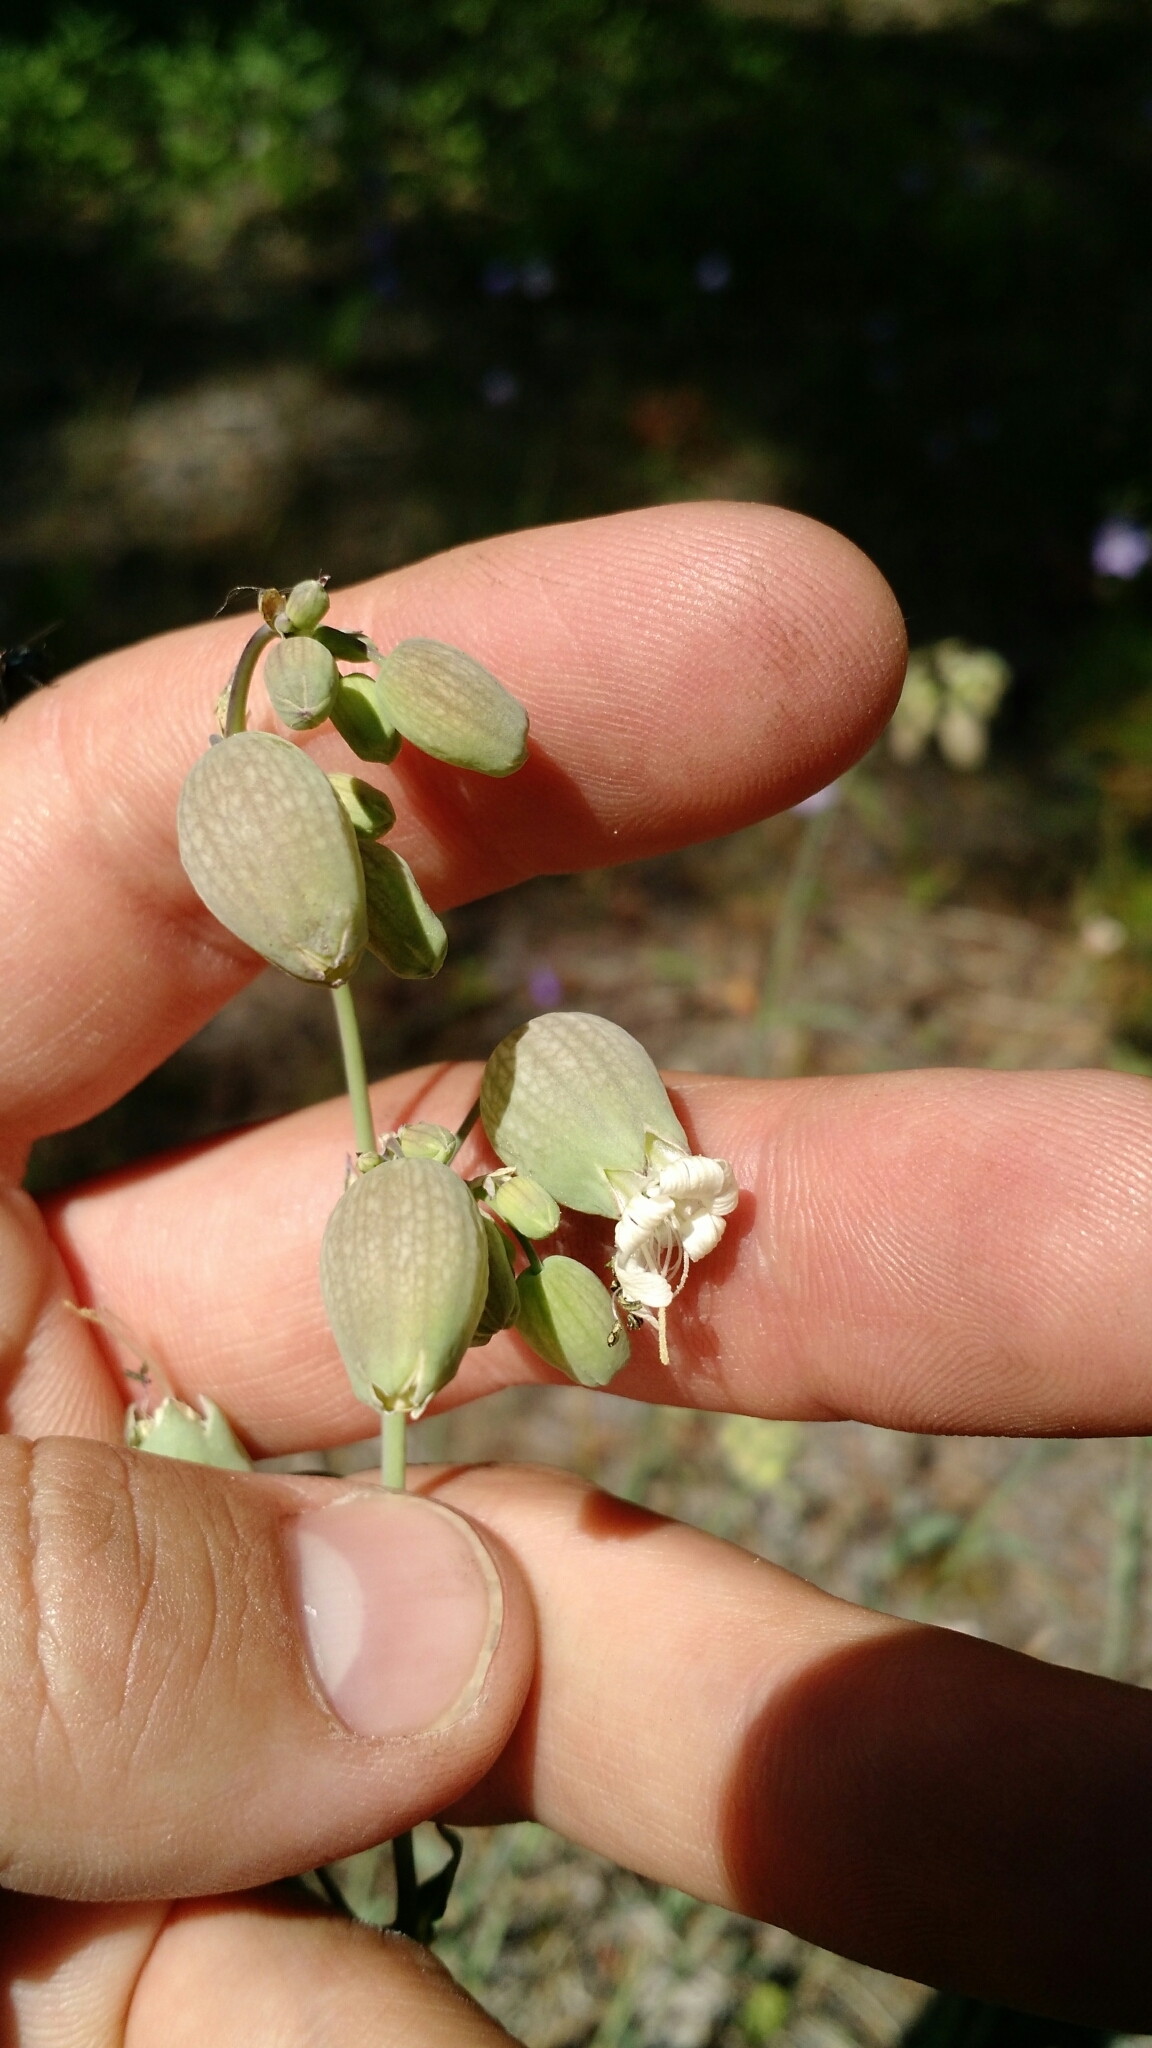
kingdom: Plantae
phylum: Tracheophyta
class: Magnoliopsida
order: Caryophyllales
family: Caryophyllaceae
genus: Silene
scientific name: Silene vulgaris
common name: Bladder campion
